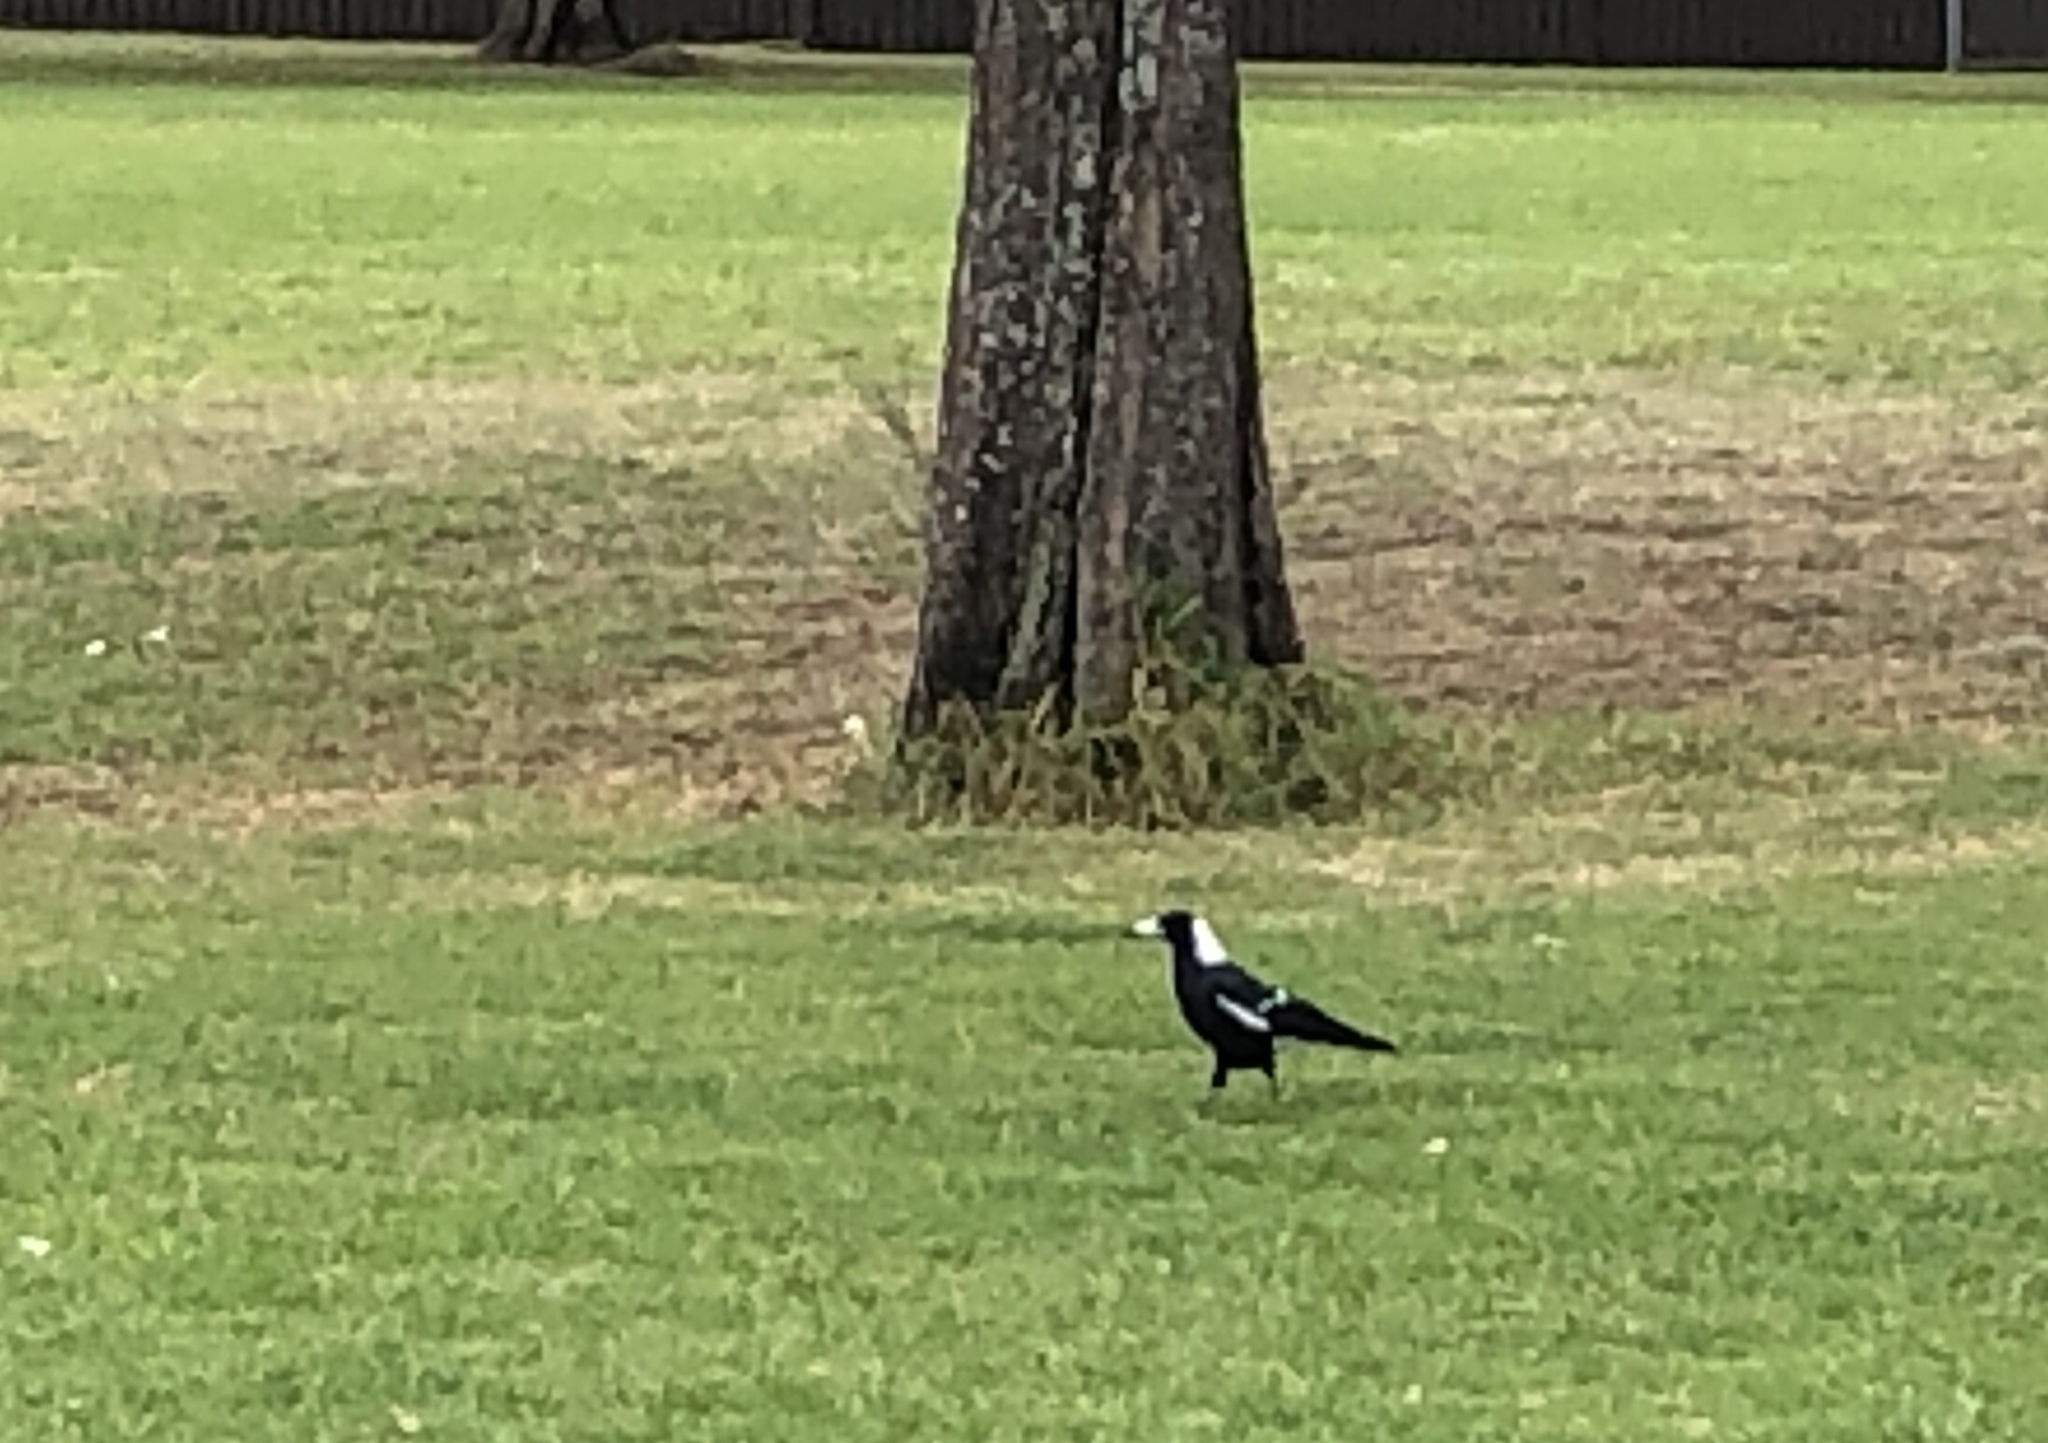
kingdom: Animalia
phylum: Chordata
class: Aves
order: Passeriformes
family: Cracticidae
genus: Gymnorhina
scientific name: Gymnorhina tibicen
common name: Australian magpie
